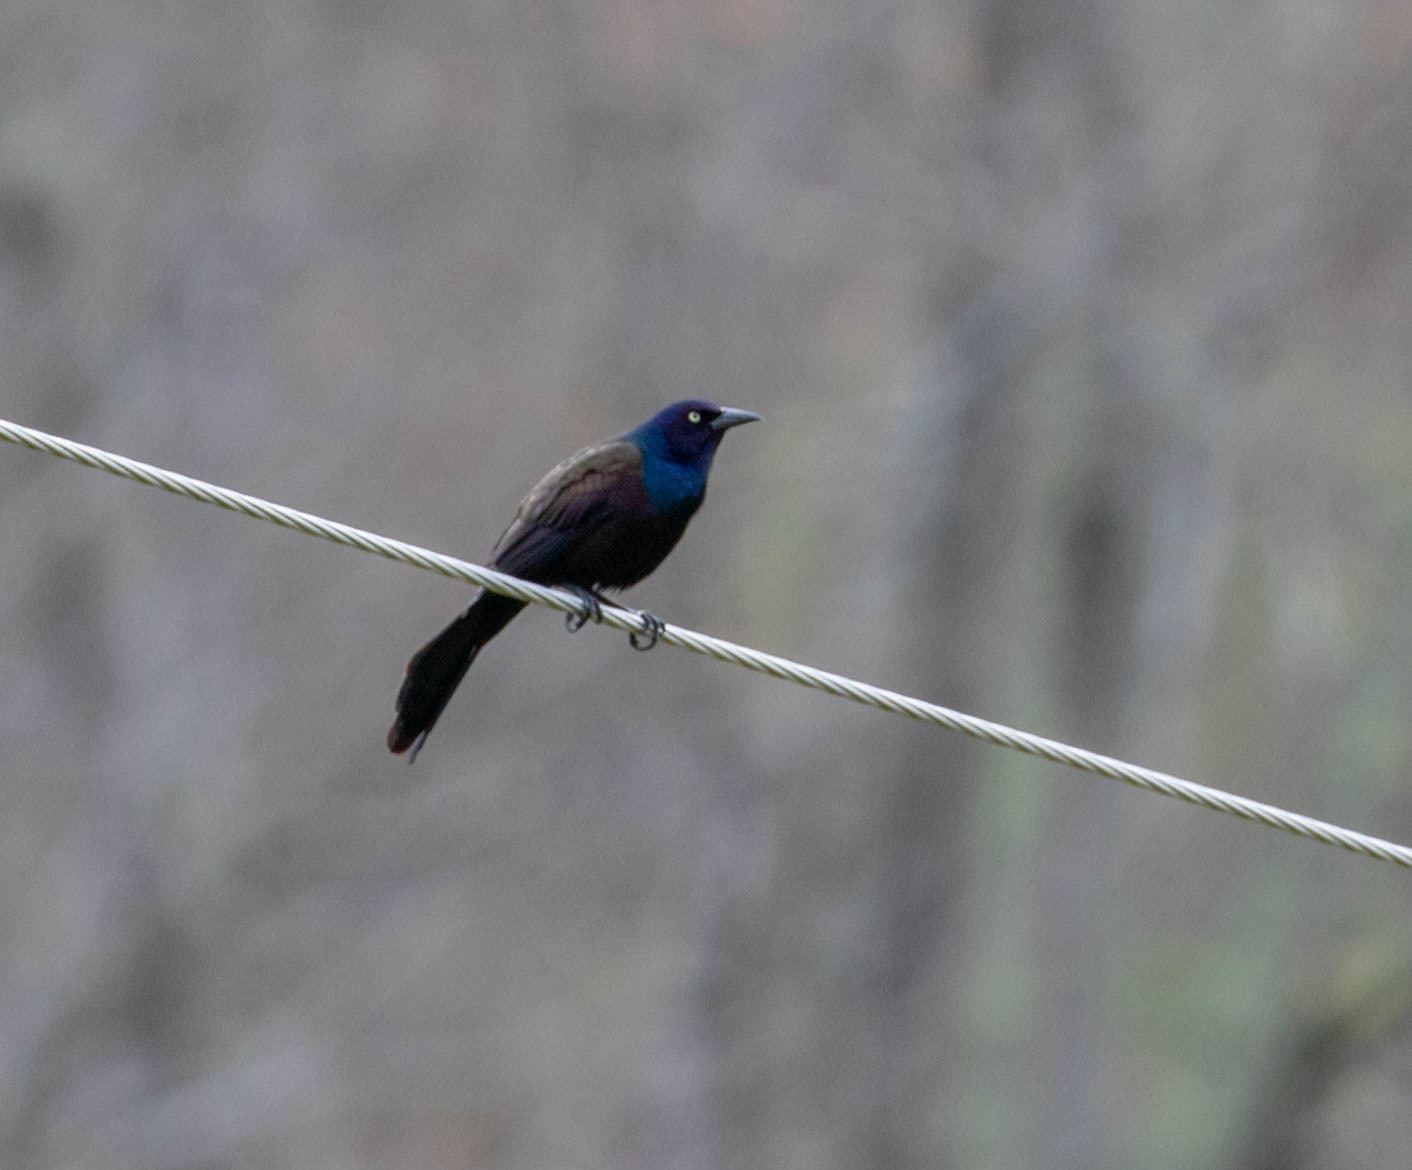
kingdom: Animalia
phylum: Chordata
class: Aves
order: Passeriformes
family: Icteridae
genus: Quiscalus
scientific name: Quiscalus quiscula
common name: Common grackle
